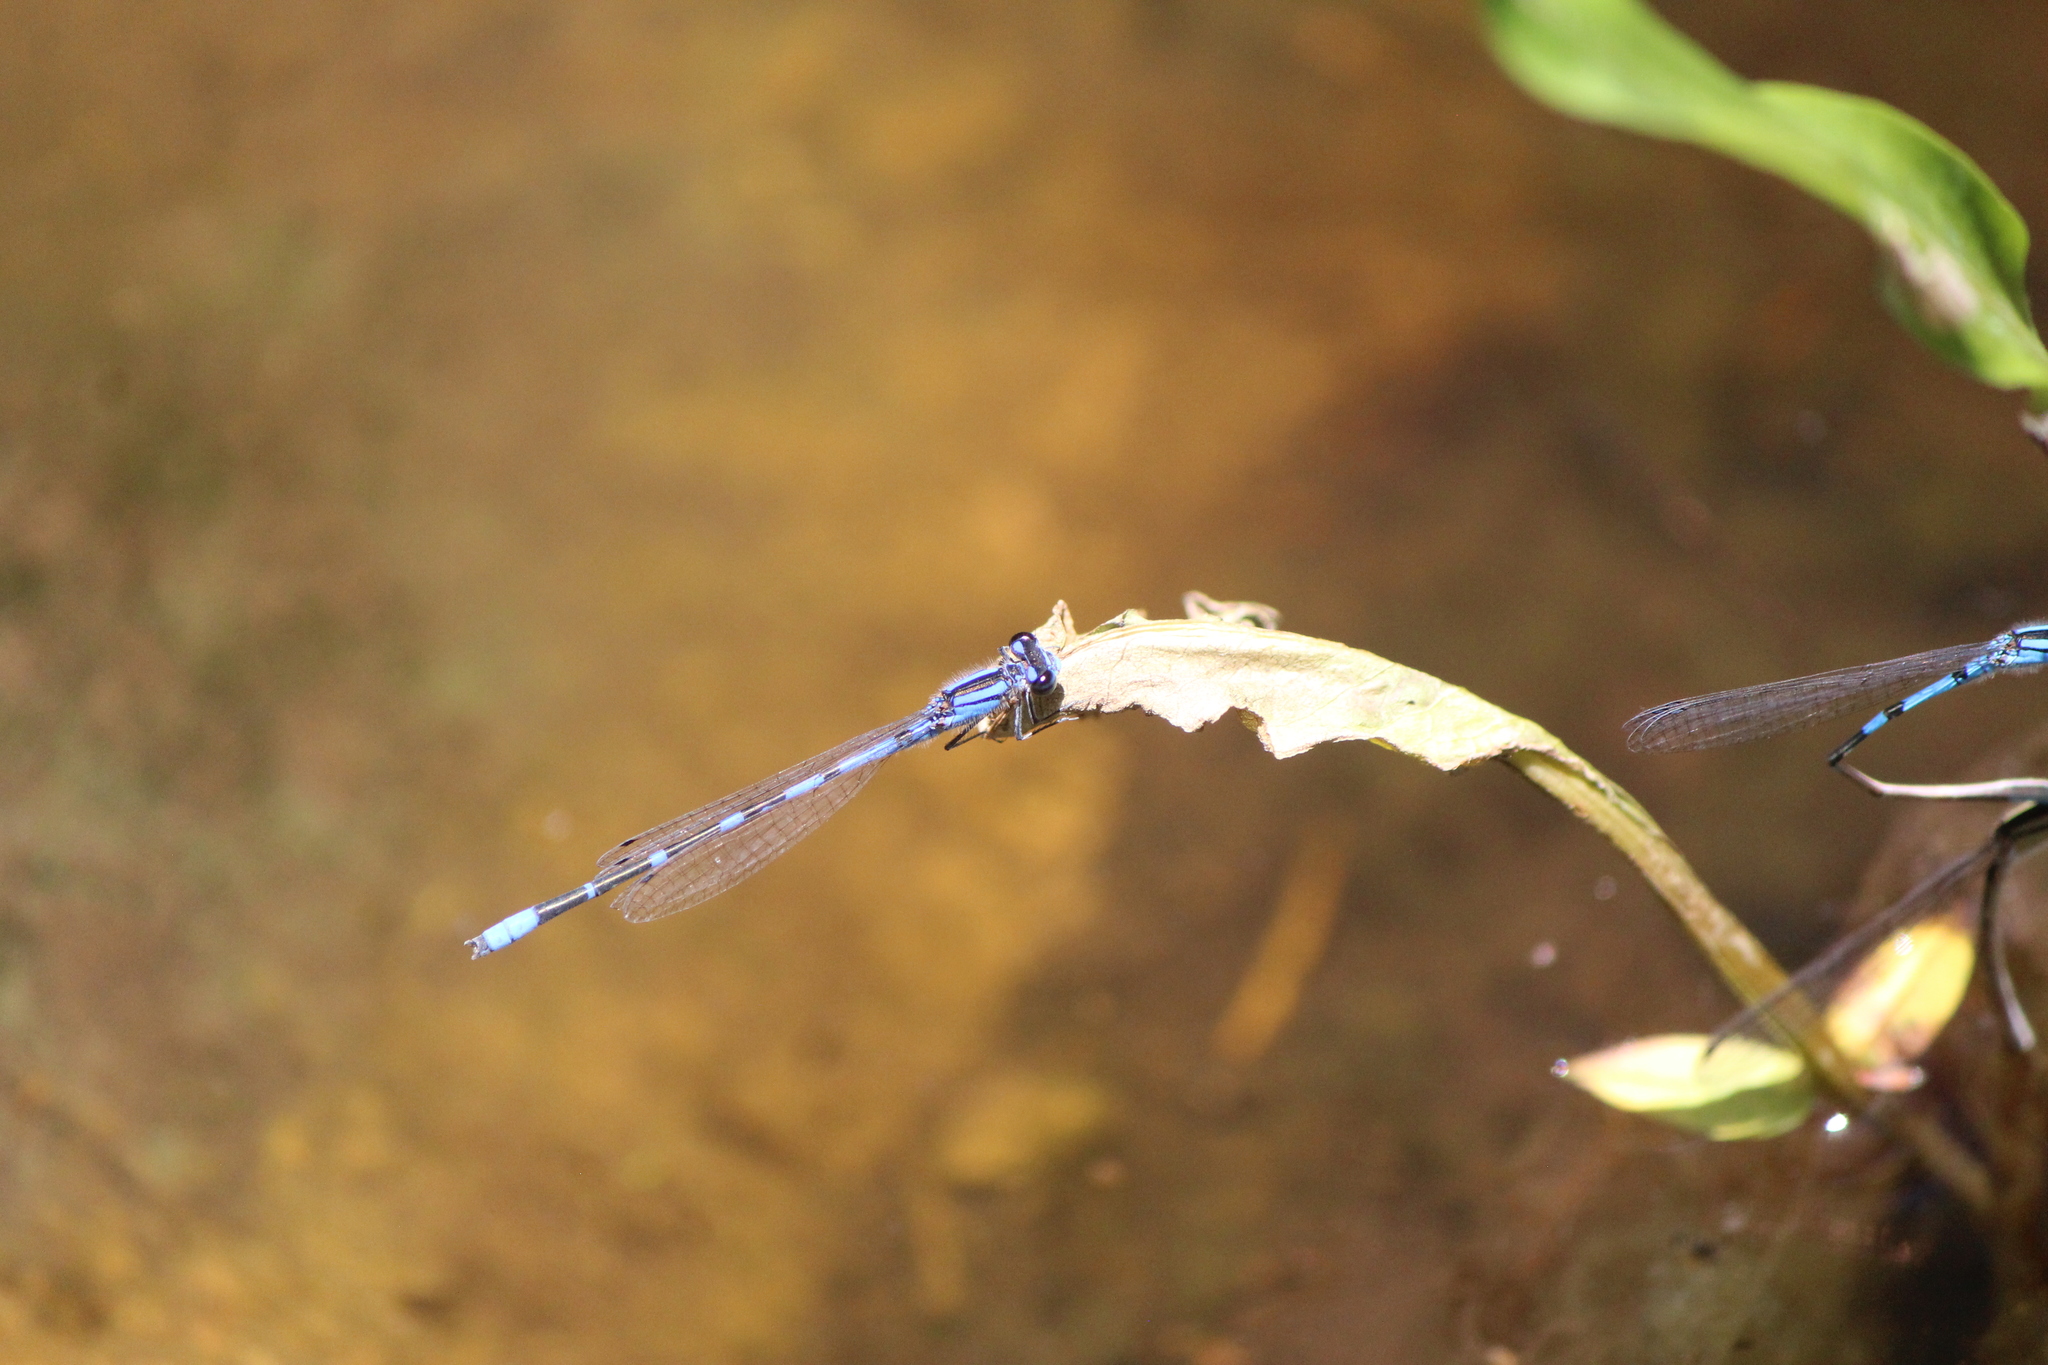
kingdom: Animalia
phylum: Arthropoda
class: Insecta
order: Odonata
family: Coenagrionidae
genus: Enallagma
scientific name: Enallagma civile
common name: Damselfly
